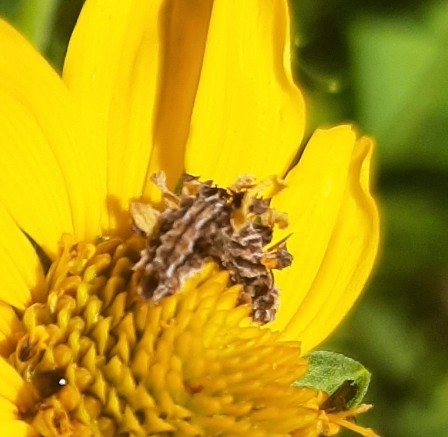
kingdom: Animalia
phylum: Arthropoda
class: Insecta
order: Lepidoptera
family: Geometridae
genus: Synchlora
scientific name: Synchlora aerata
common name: Wavy-lined emerald
